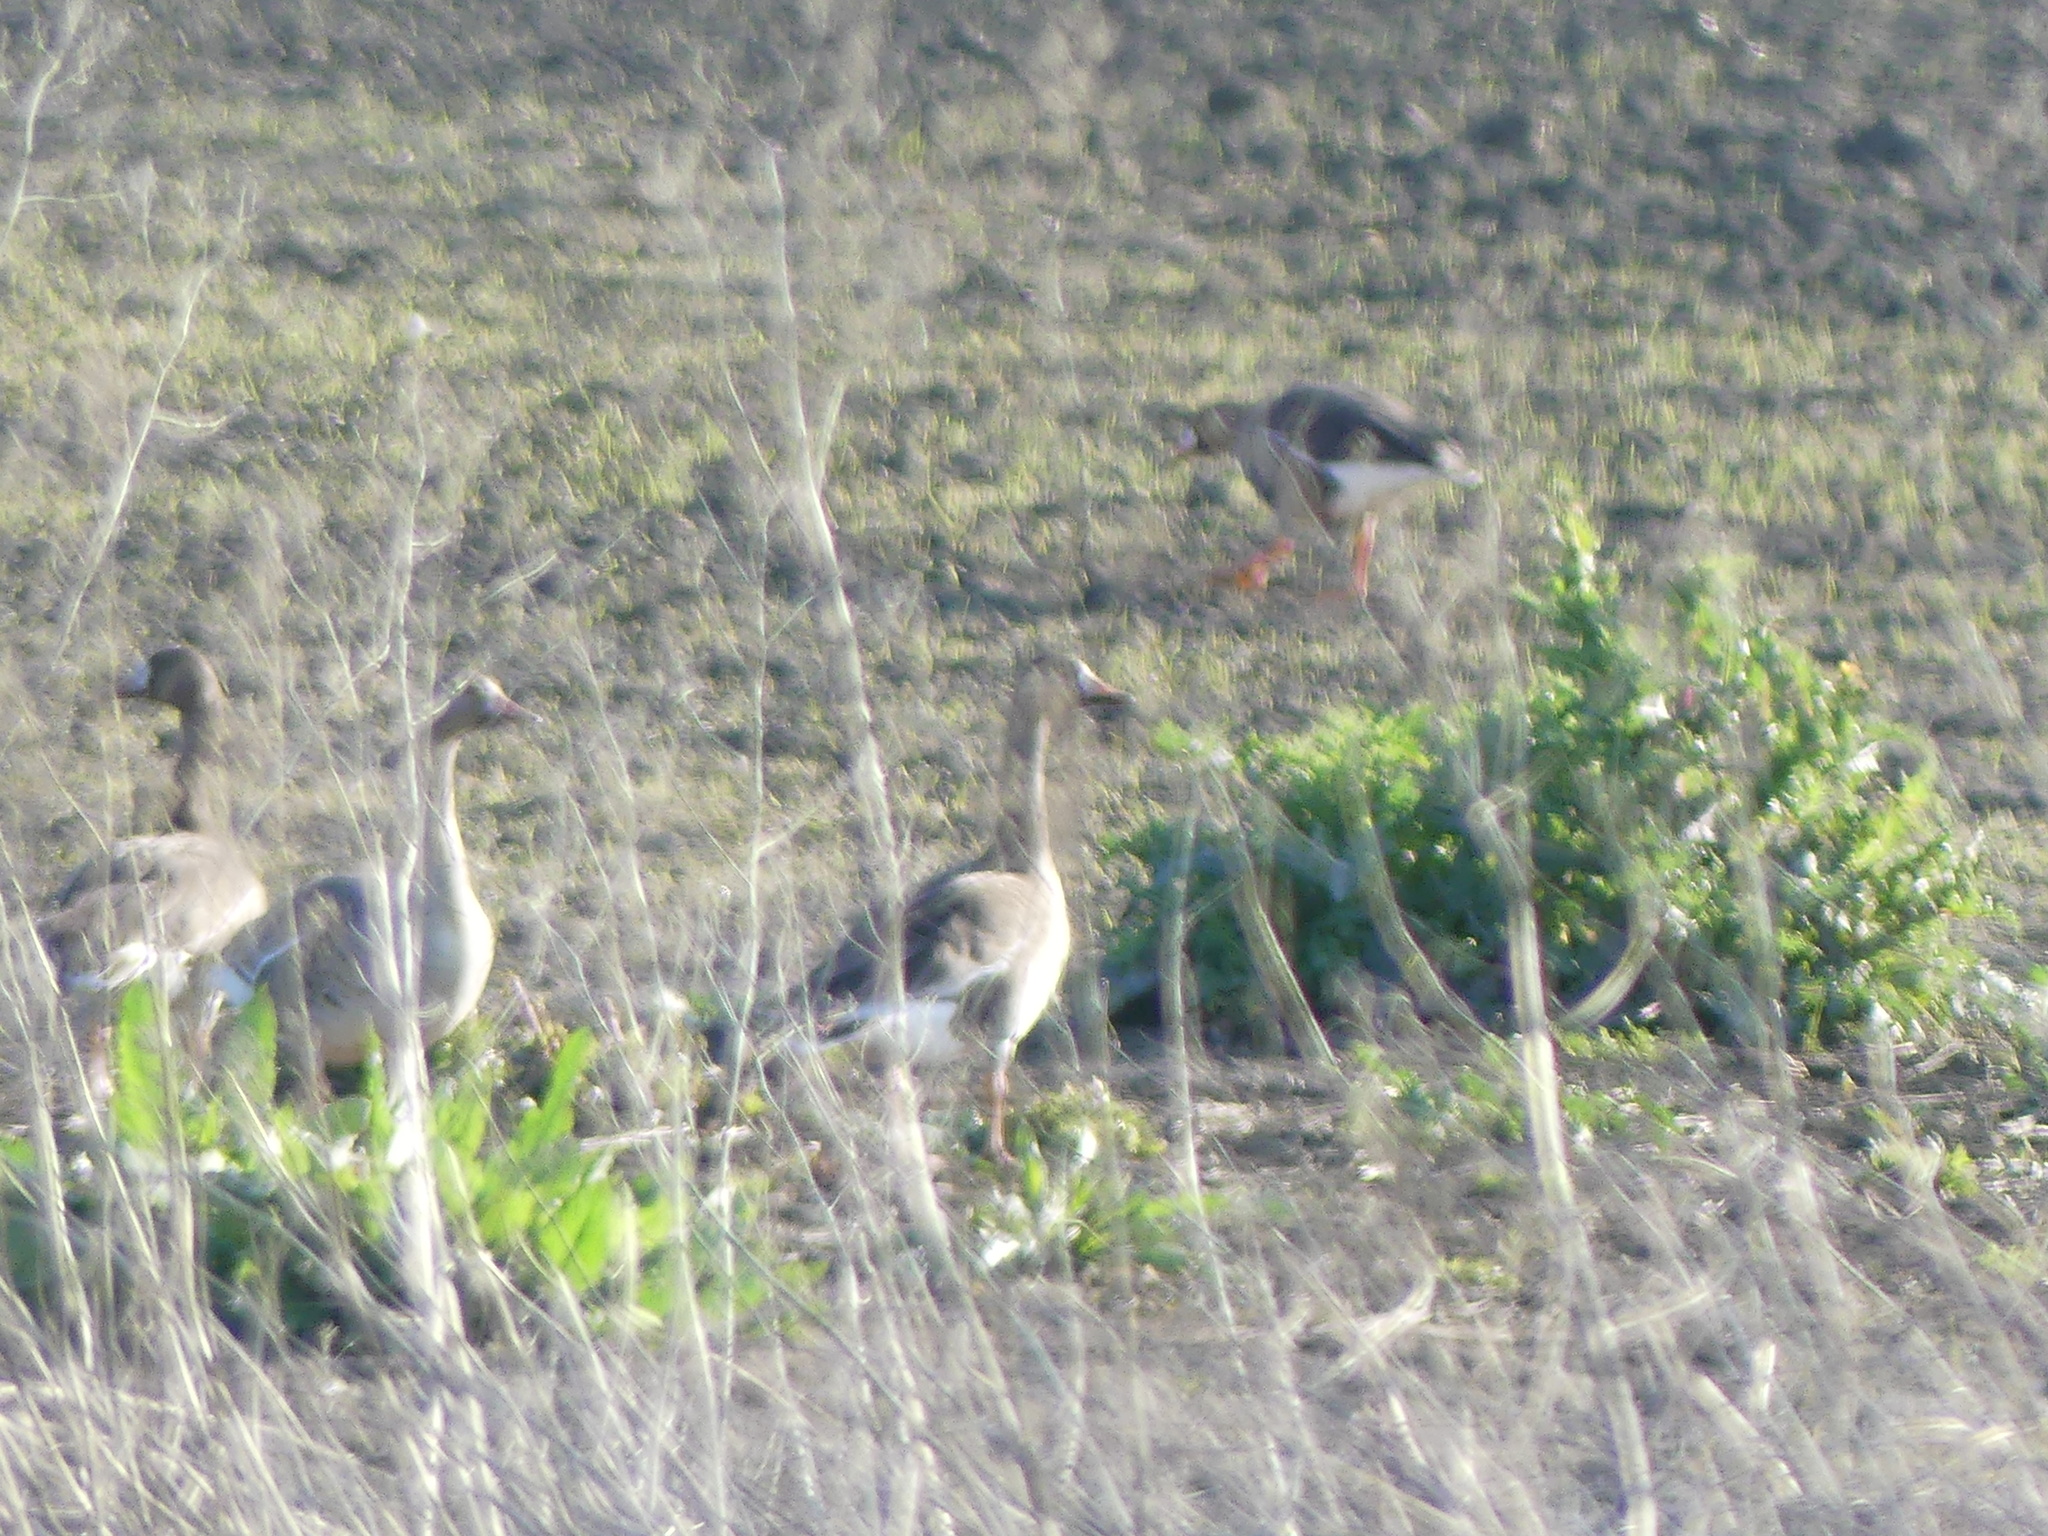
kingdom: Animalia
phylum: Chordata
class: Aves
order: Anseriformes
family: Anatidae
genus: Anser
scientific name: Anser albifrons
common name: Greater white-fronted goose
